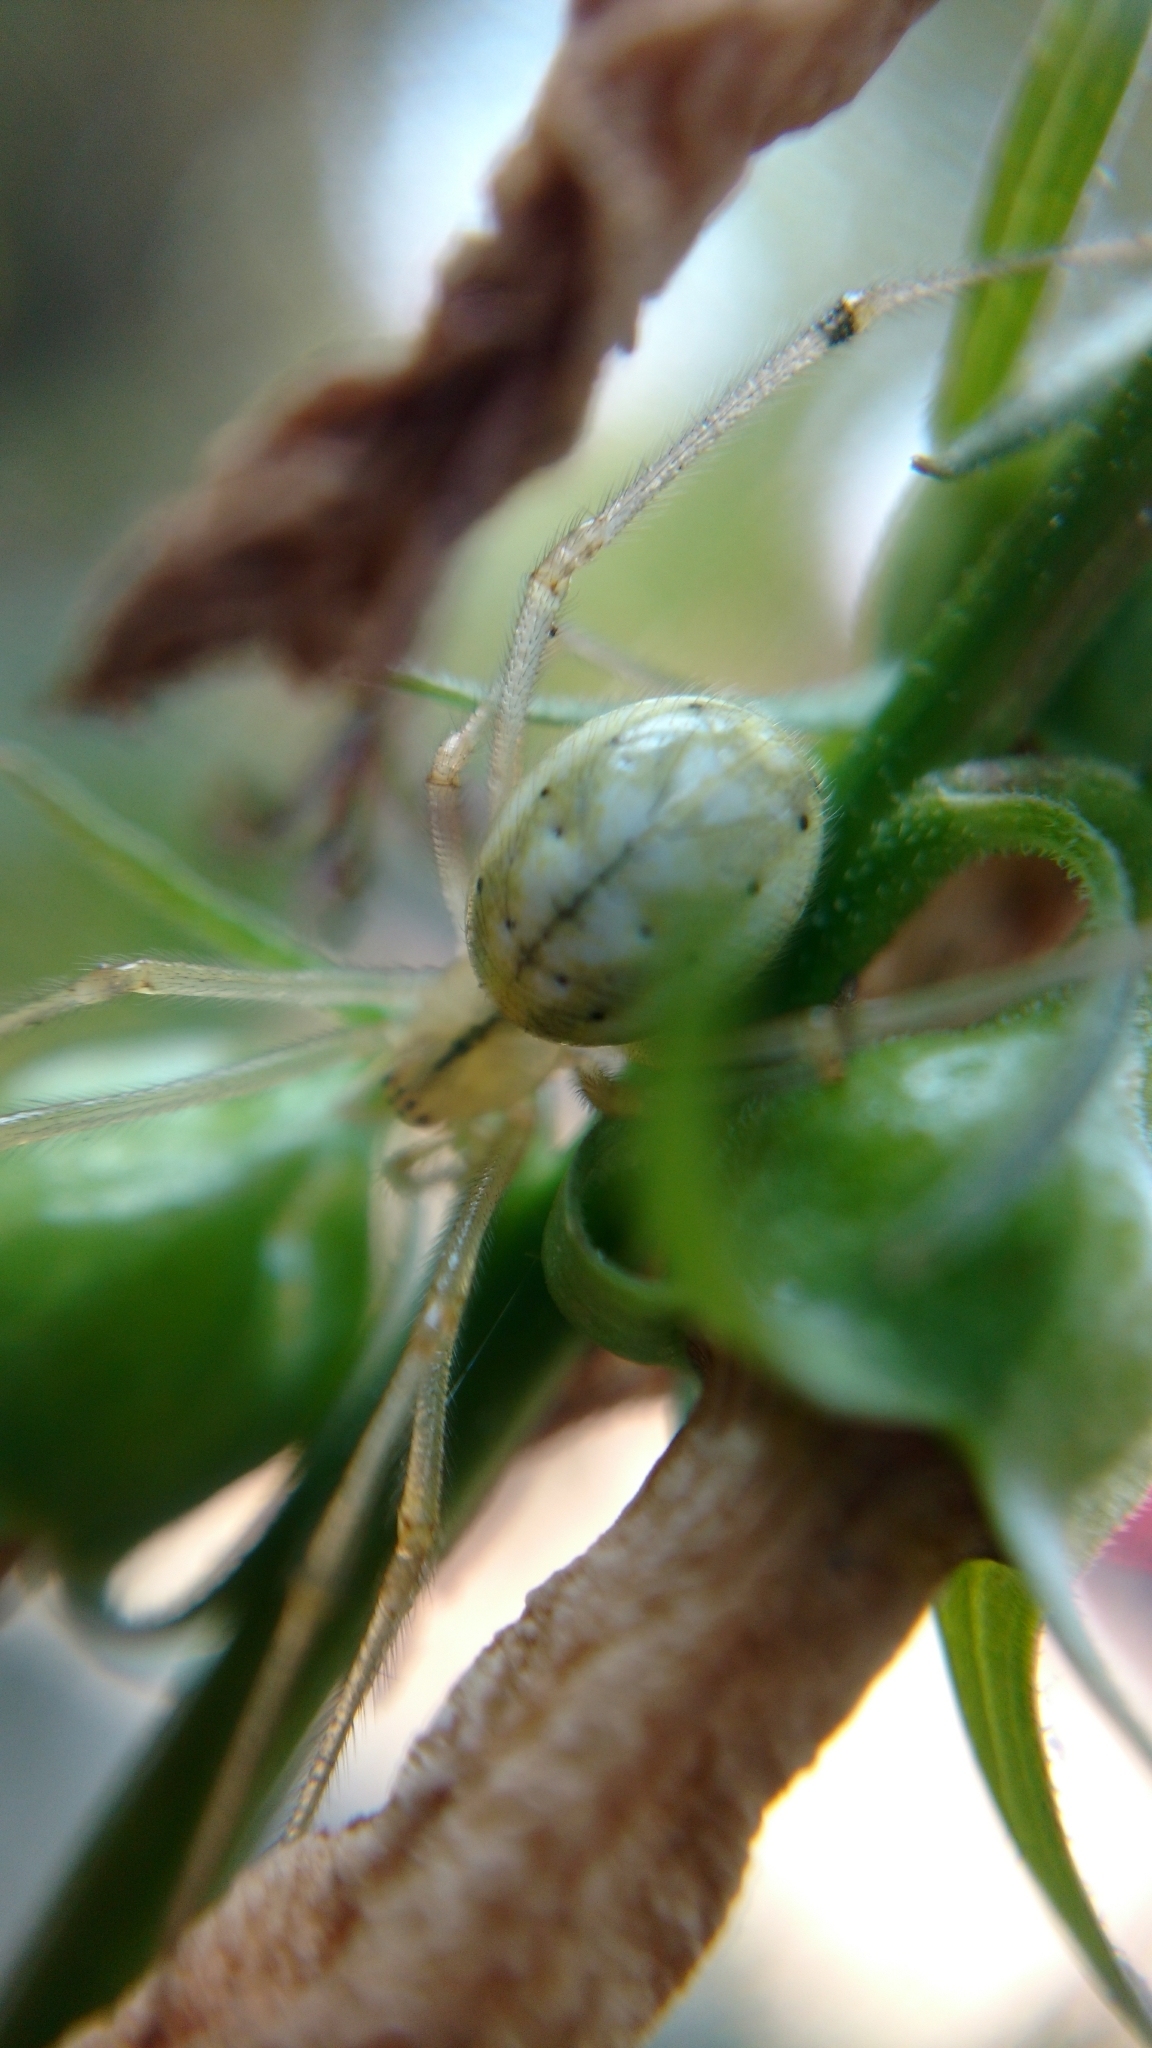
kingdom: Animalia
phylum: Arthropoda
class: Arachnida
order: Araneae
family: Theridiidae
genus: Enoplognatha
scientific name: Enoplognatha ovata
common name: Common candy-striped spider
